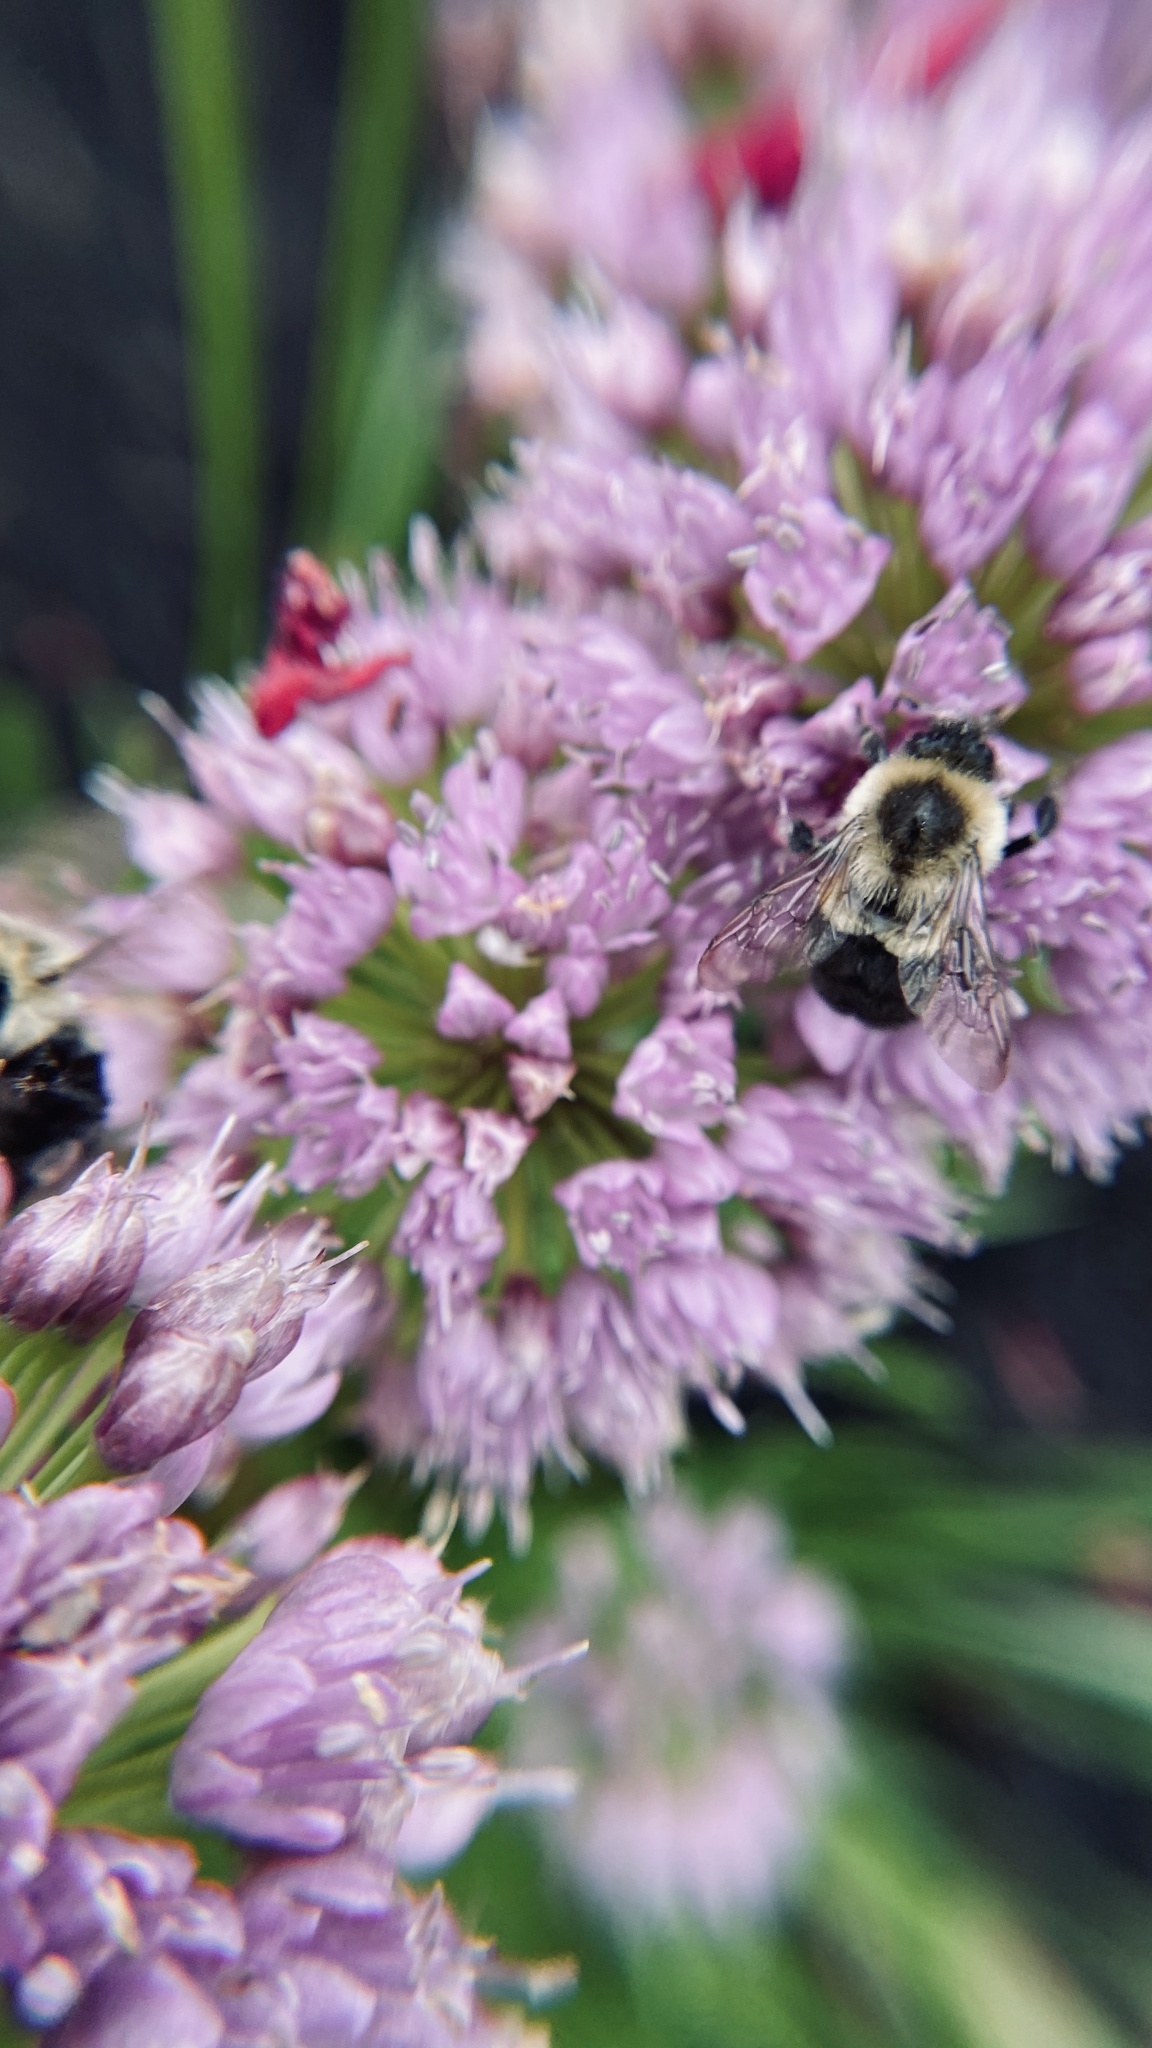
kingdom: Animalia
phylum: Arthropoda
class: Insecta
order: Hymenoptera
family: Apidae
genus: Bombus
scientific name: Bombus impatiens
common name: Common eastern bumble bee
